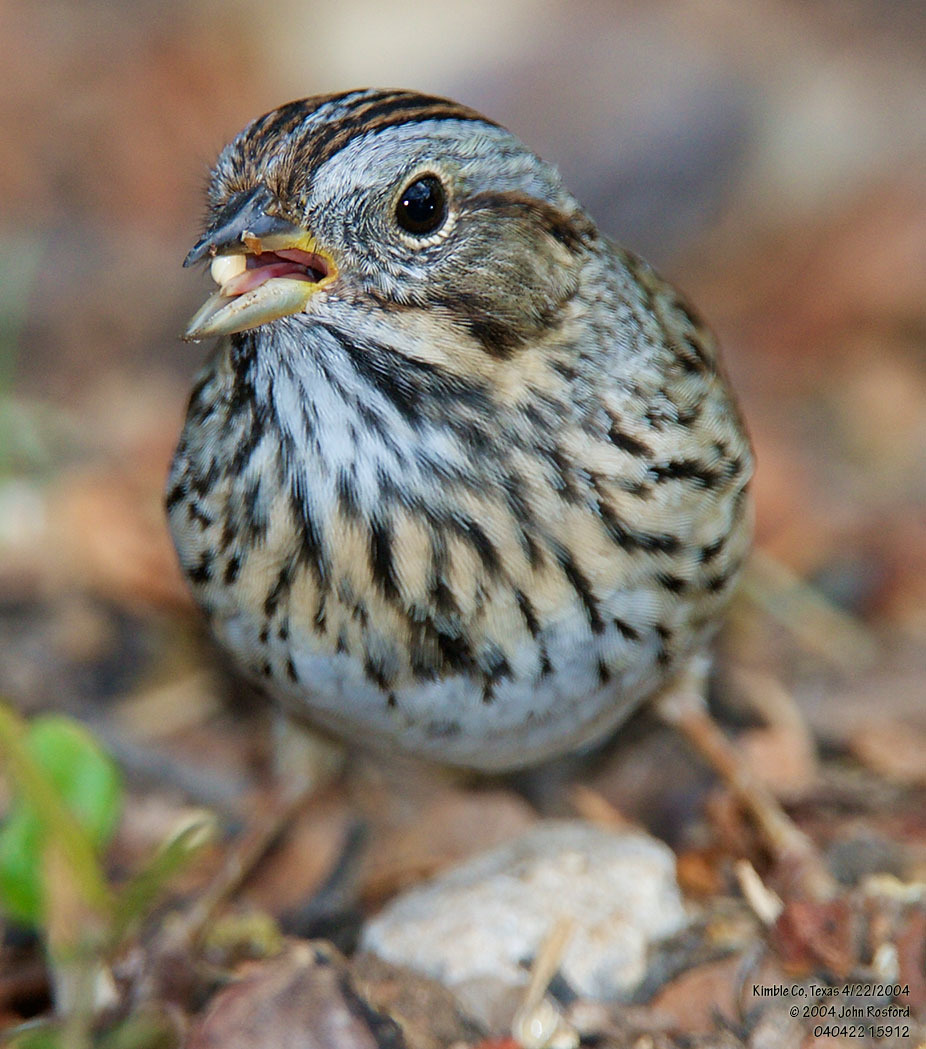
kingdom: Animalia
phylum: Chordata
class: Aves
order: Passeriformes
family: Passerellidae
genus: Melospiza
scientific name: Melospiza lincolnii
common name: Lincoln's sparrow
